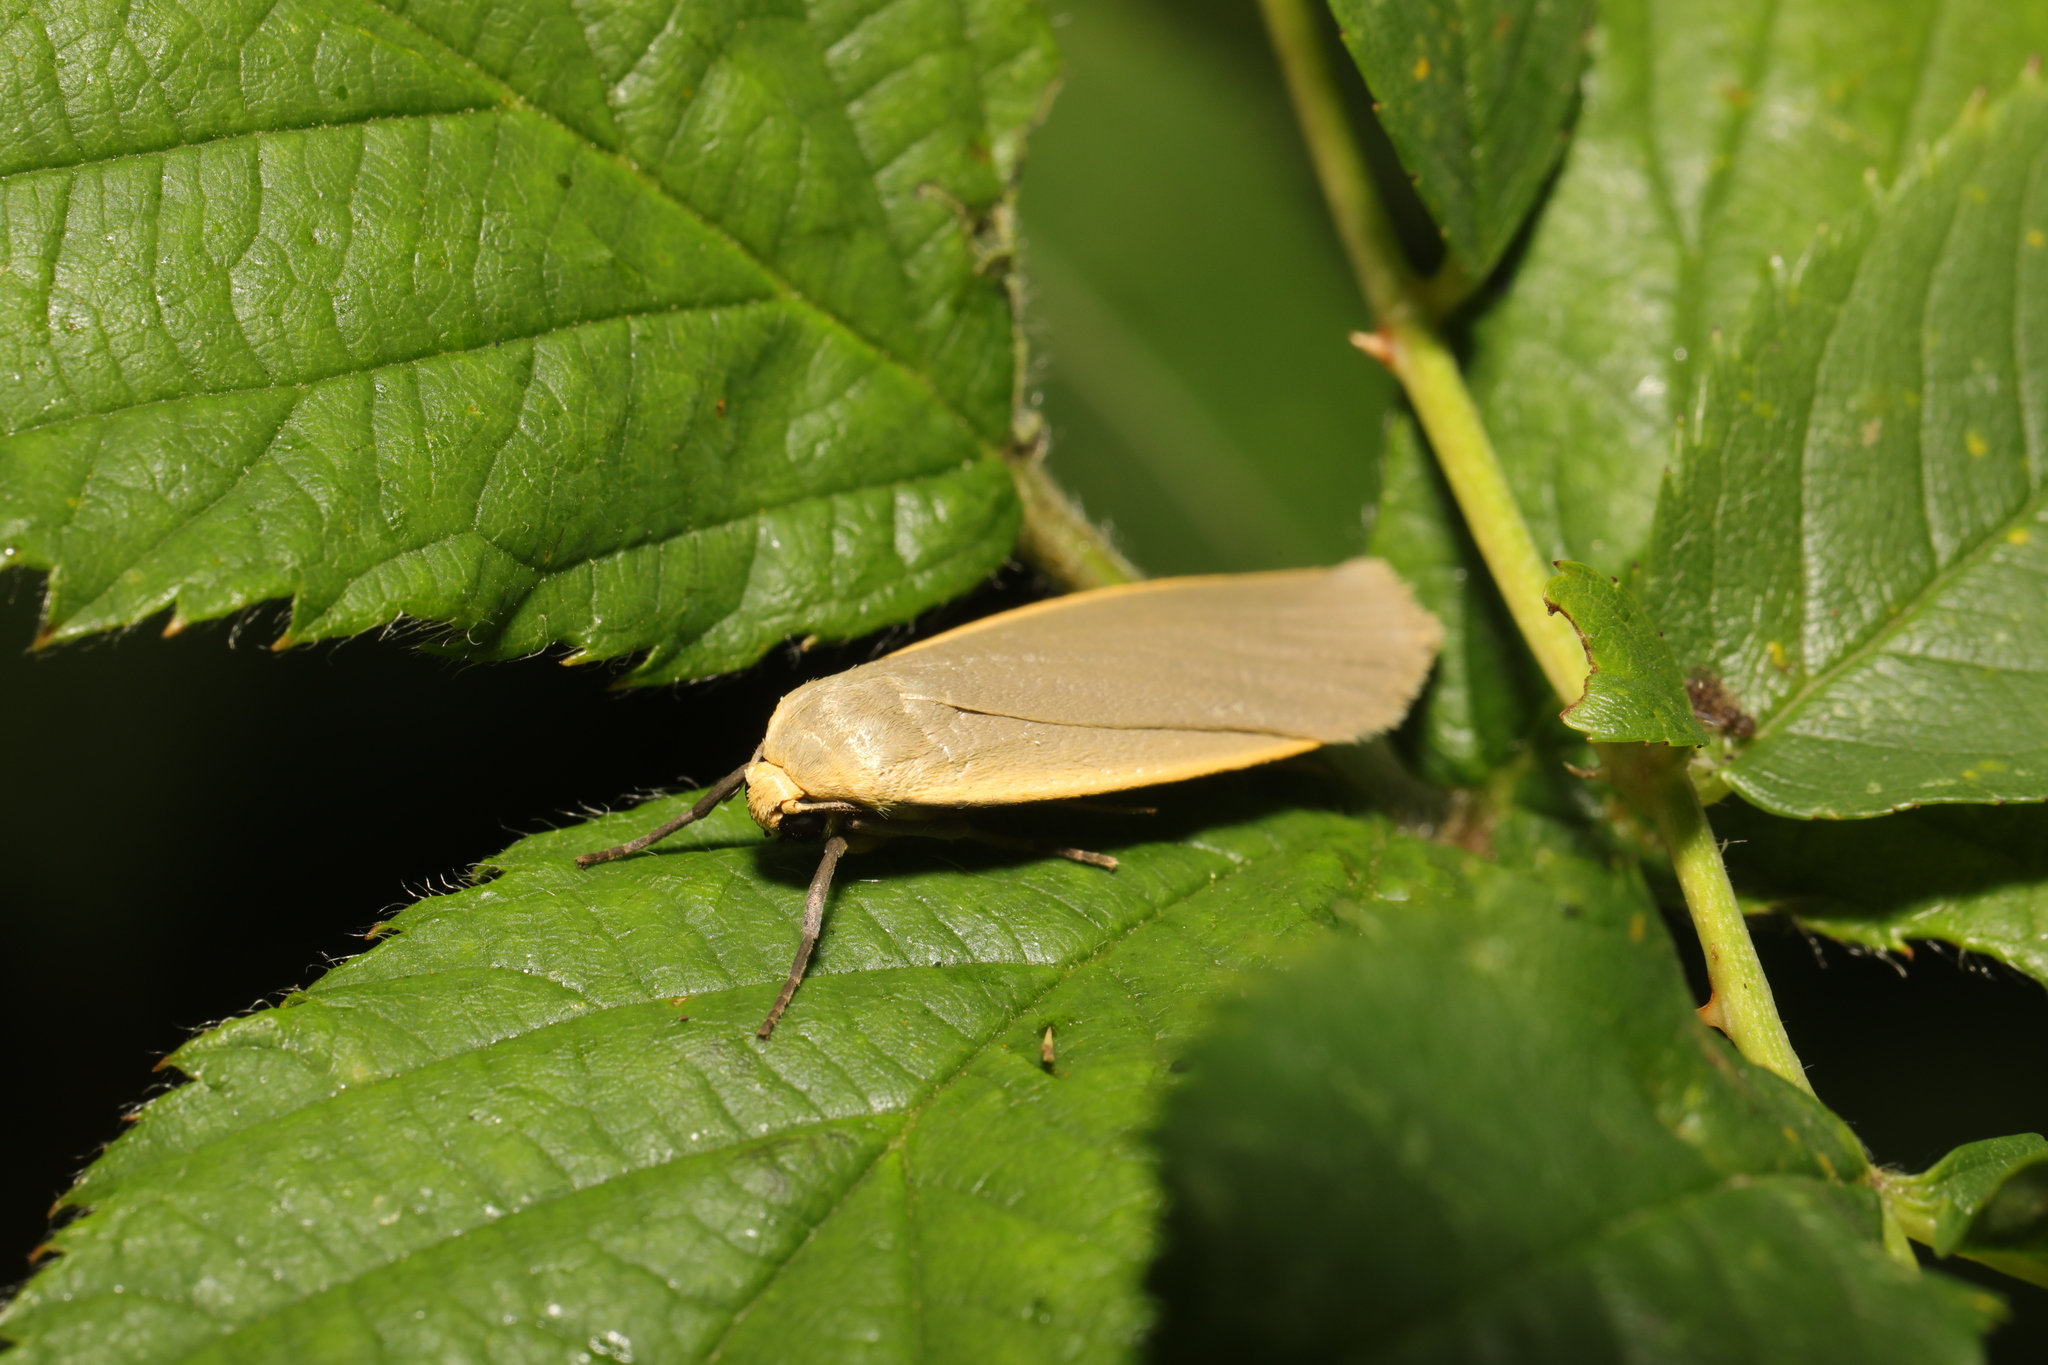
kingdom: Animalia
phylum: Arthropoda
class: Insecta
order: Lepidoptera
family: Erebidae
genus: Collita
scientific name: Collita griseola
